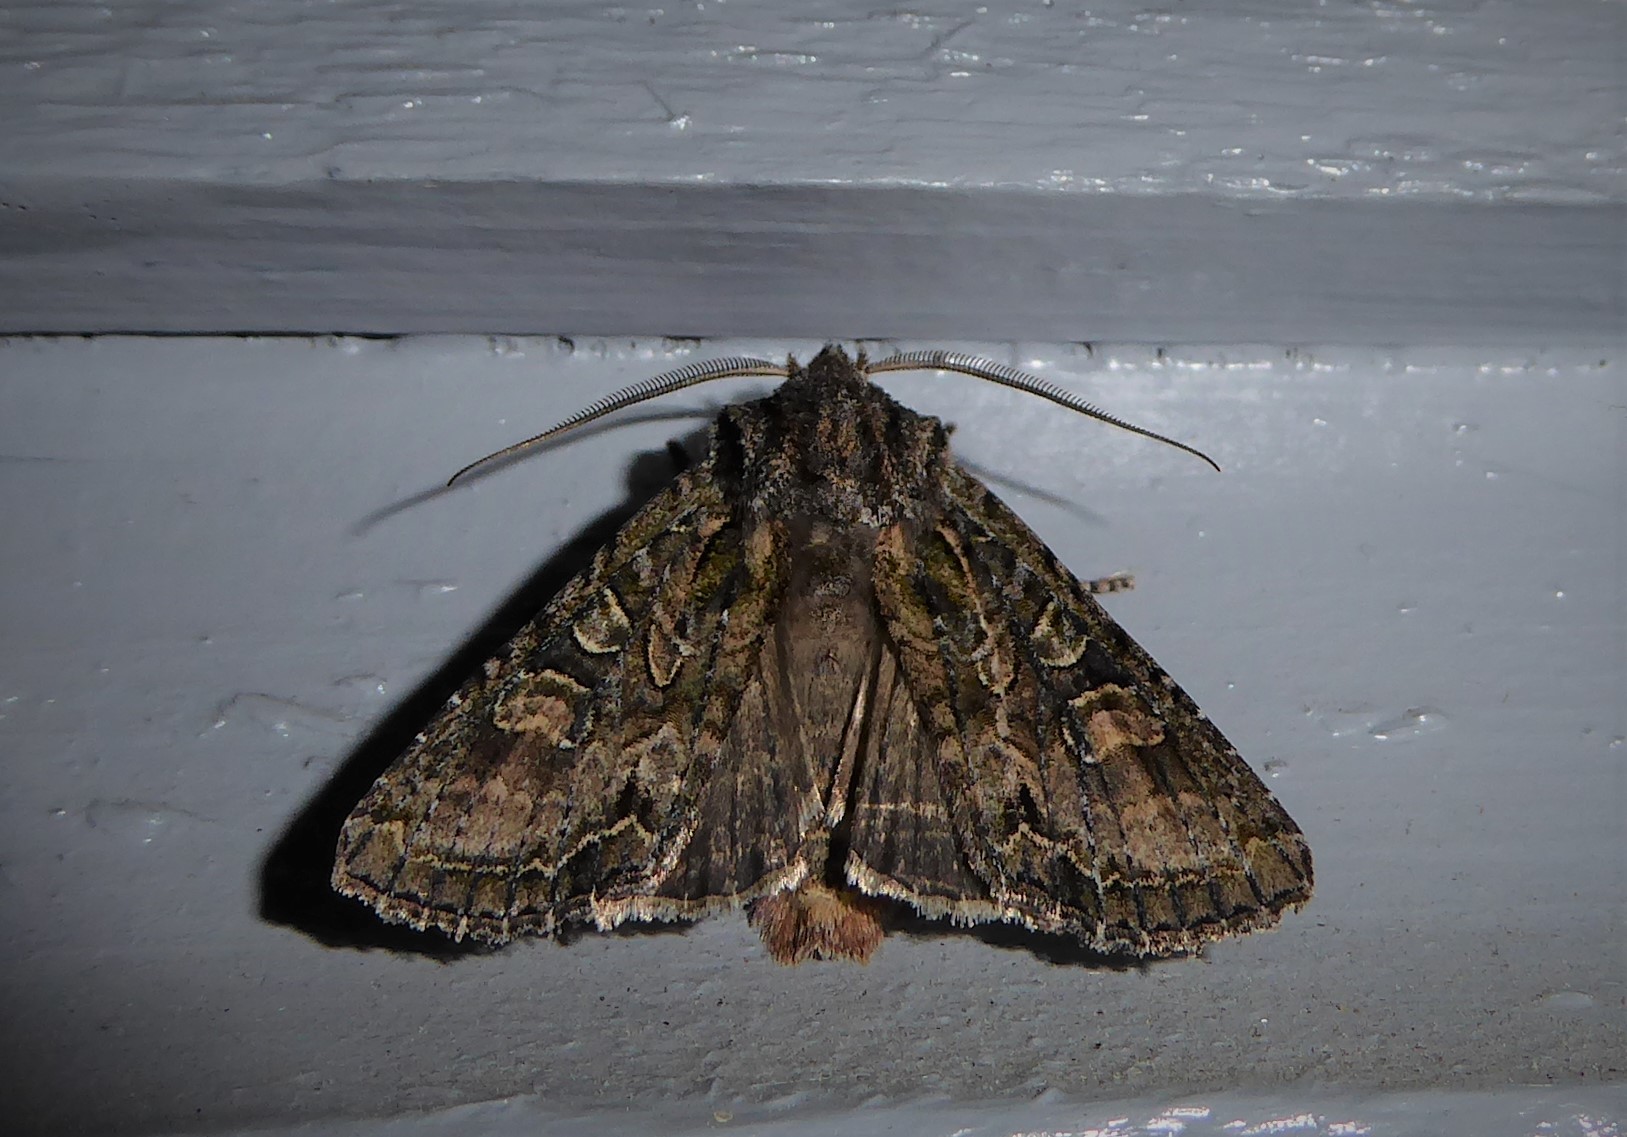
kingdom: Animalia
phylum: Arthropoda
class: Insecta
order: Lepidoptera
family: Noctuidae
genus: Ichneutica
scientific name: Ichneutica mutans
